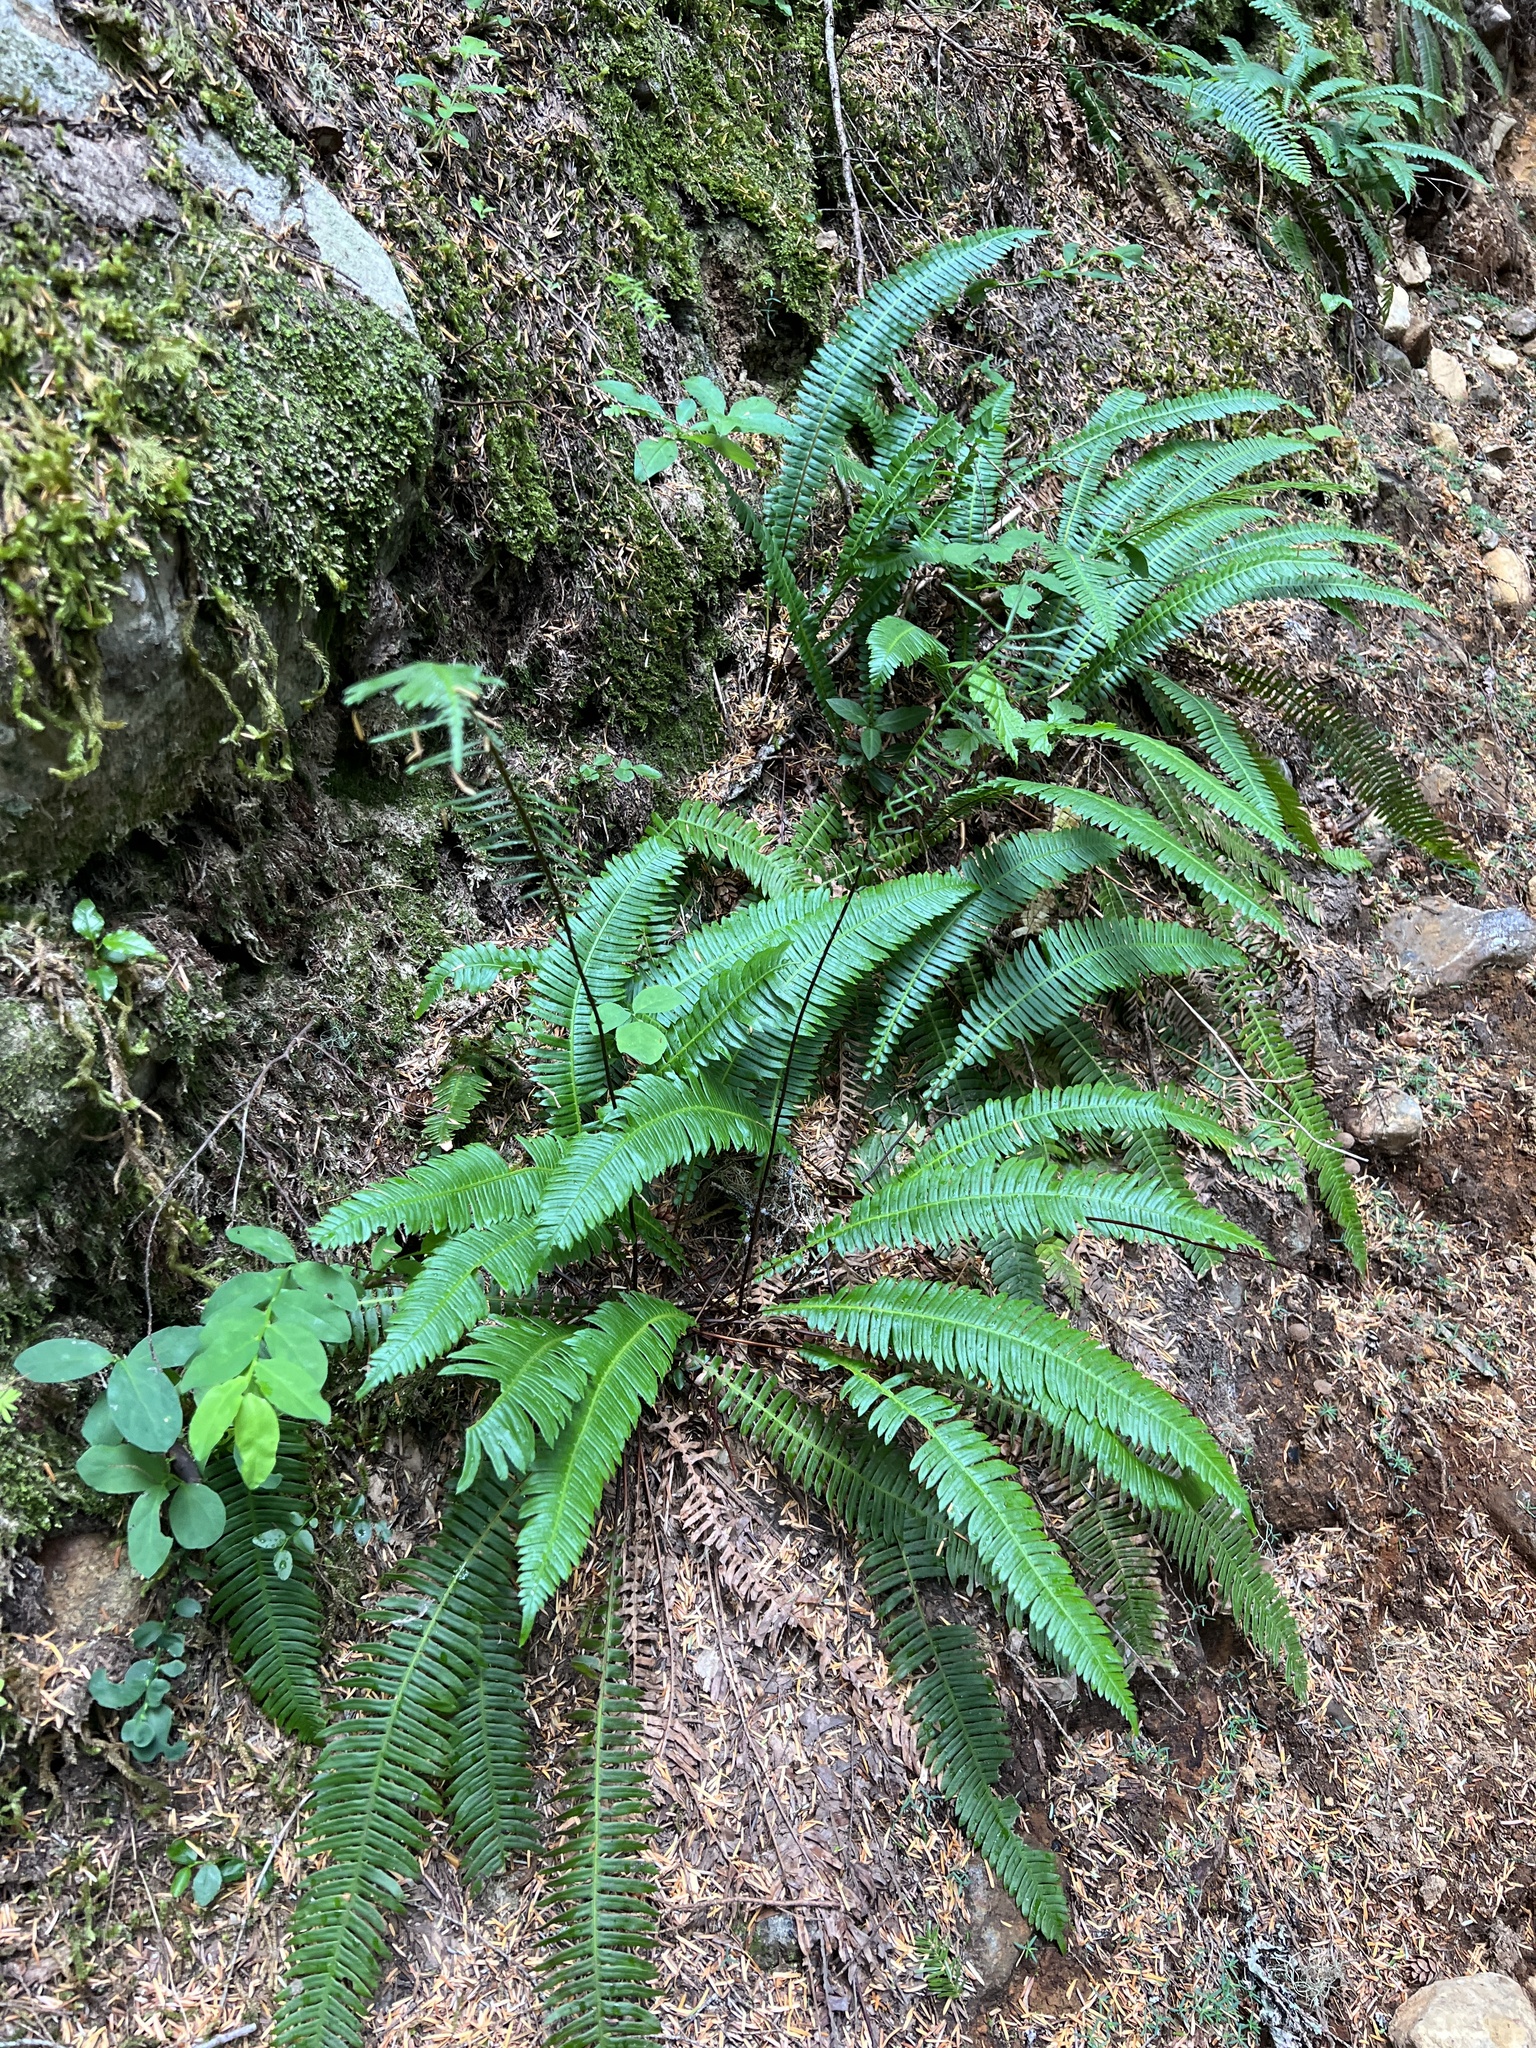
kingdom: Plantae
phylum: Tracheophyta
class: Polypodiopsida
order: Polypodiales
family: Blechnaceae
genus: Struthiopteris
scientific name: Struthiopteris spicant
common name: Deer fern
